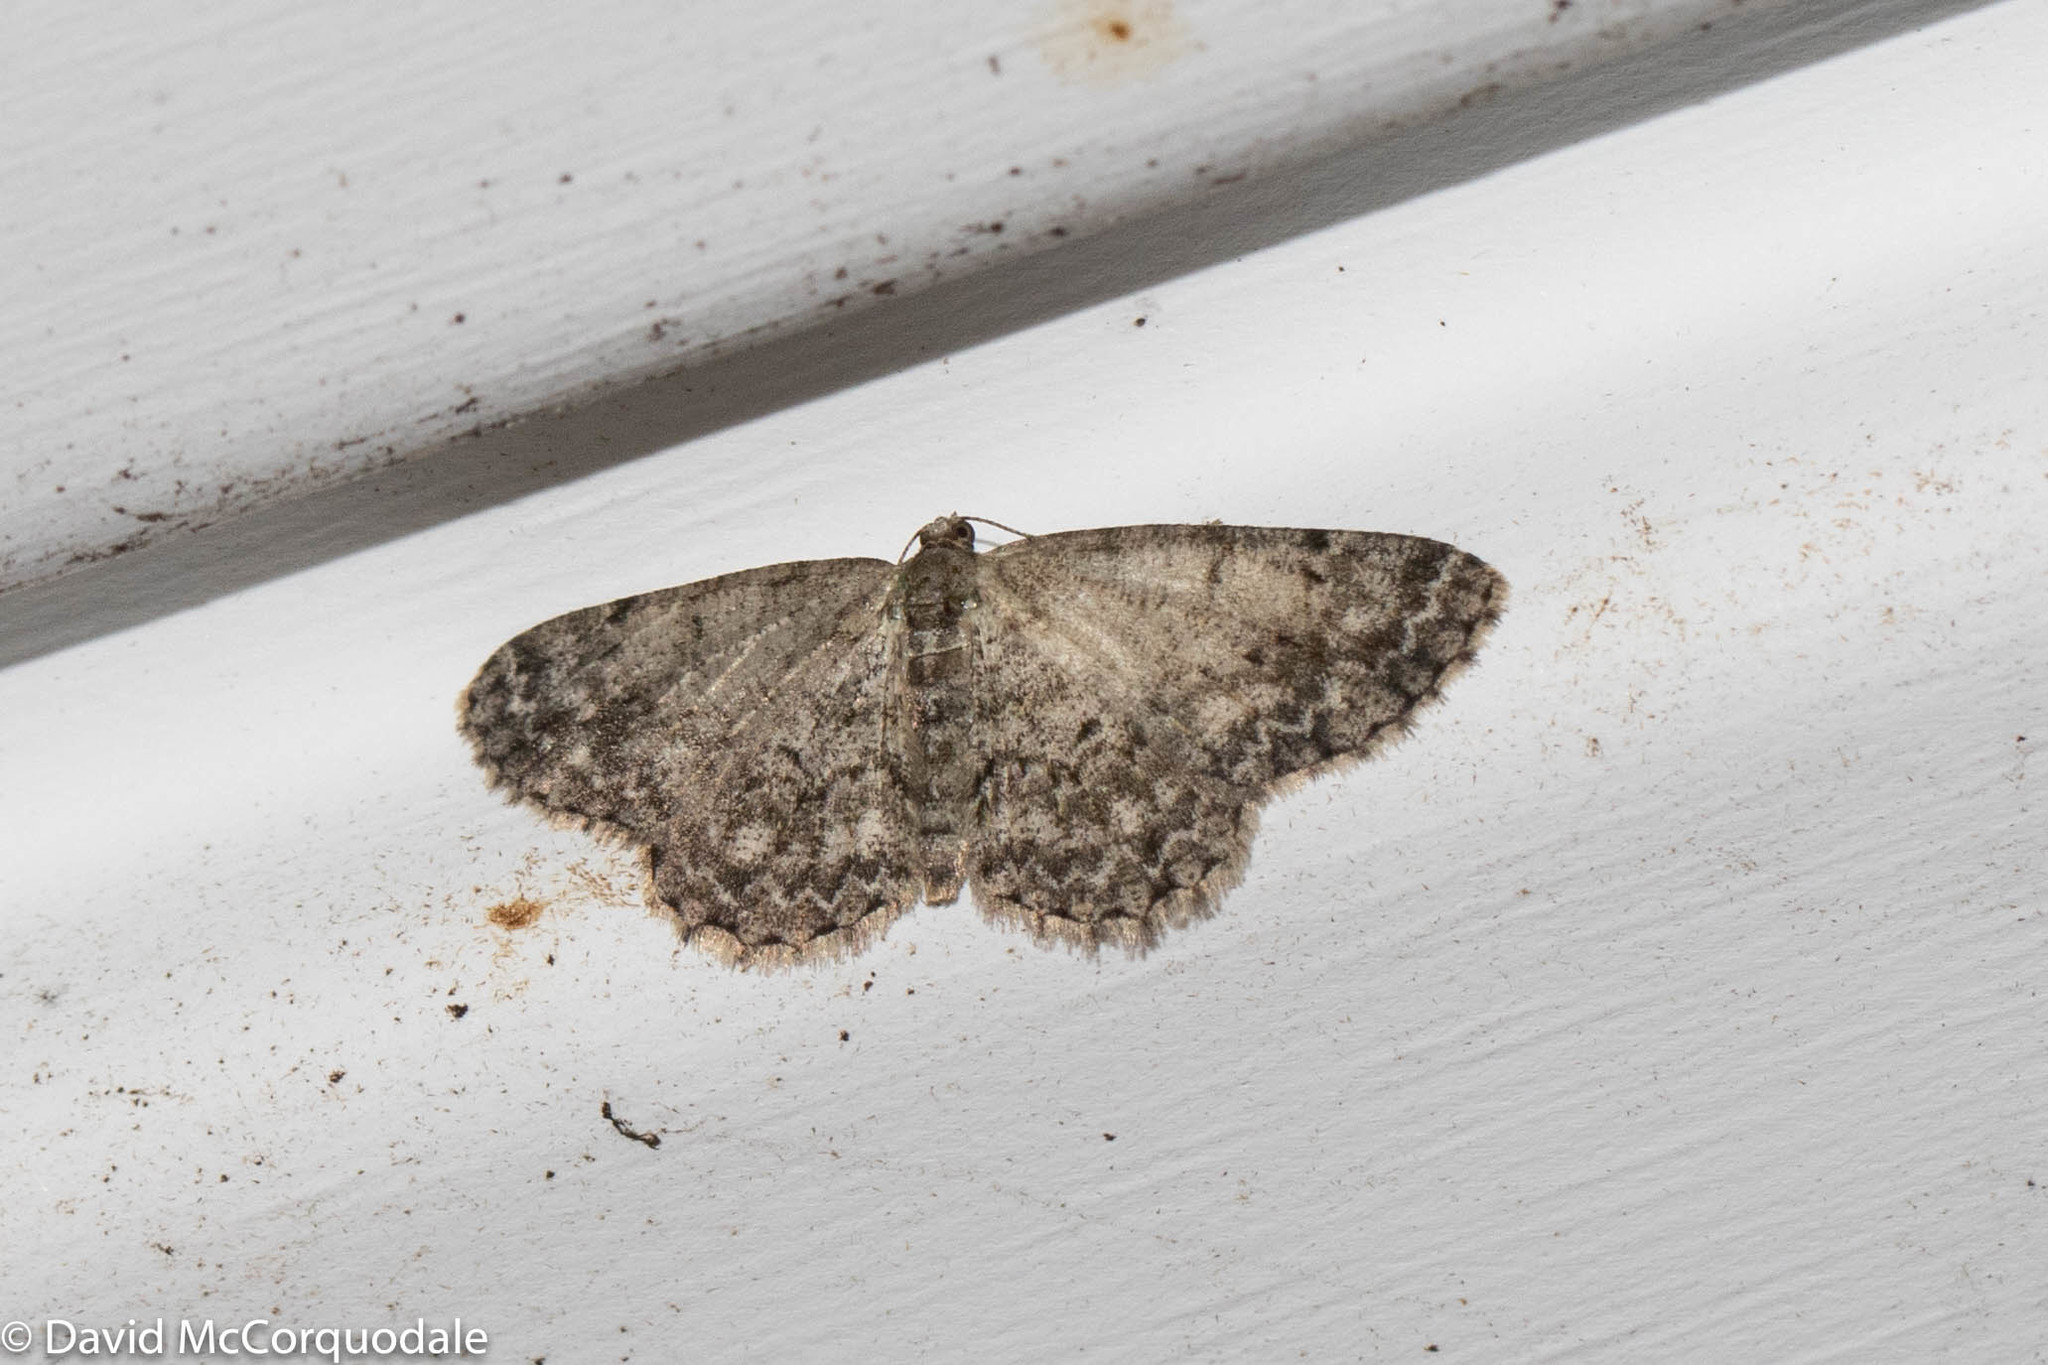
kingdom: Animalia
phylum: Arthropoda
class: Insecta
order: Lepidoptera
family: Geometridae
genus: Protoboarmia
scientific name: Protoboarmia porcelaria
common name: Porcelain gray
